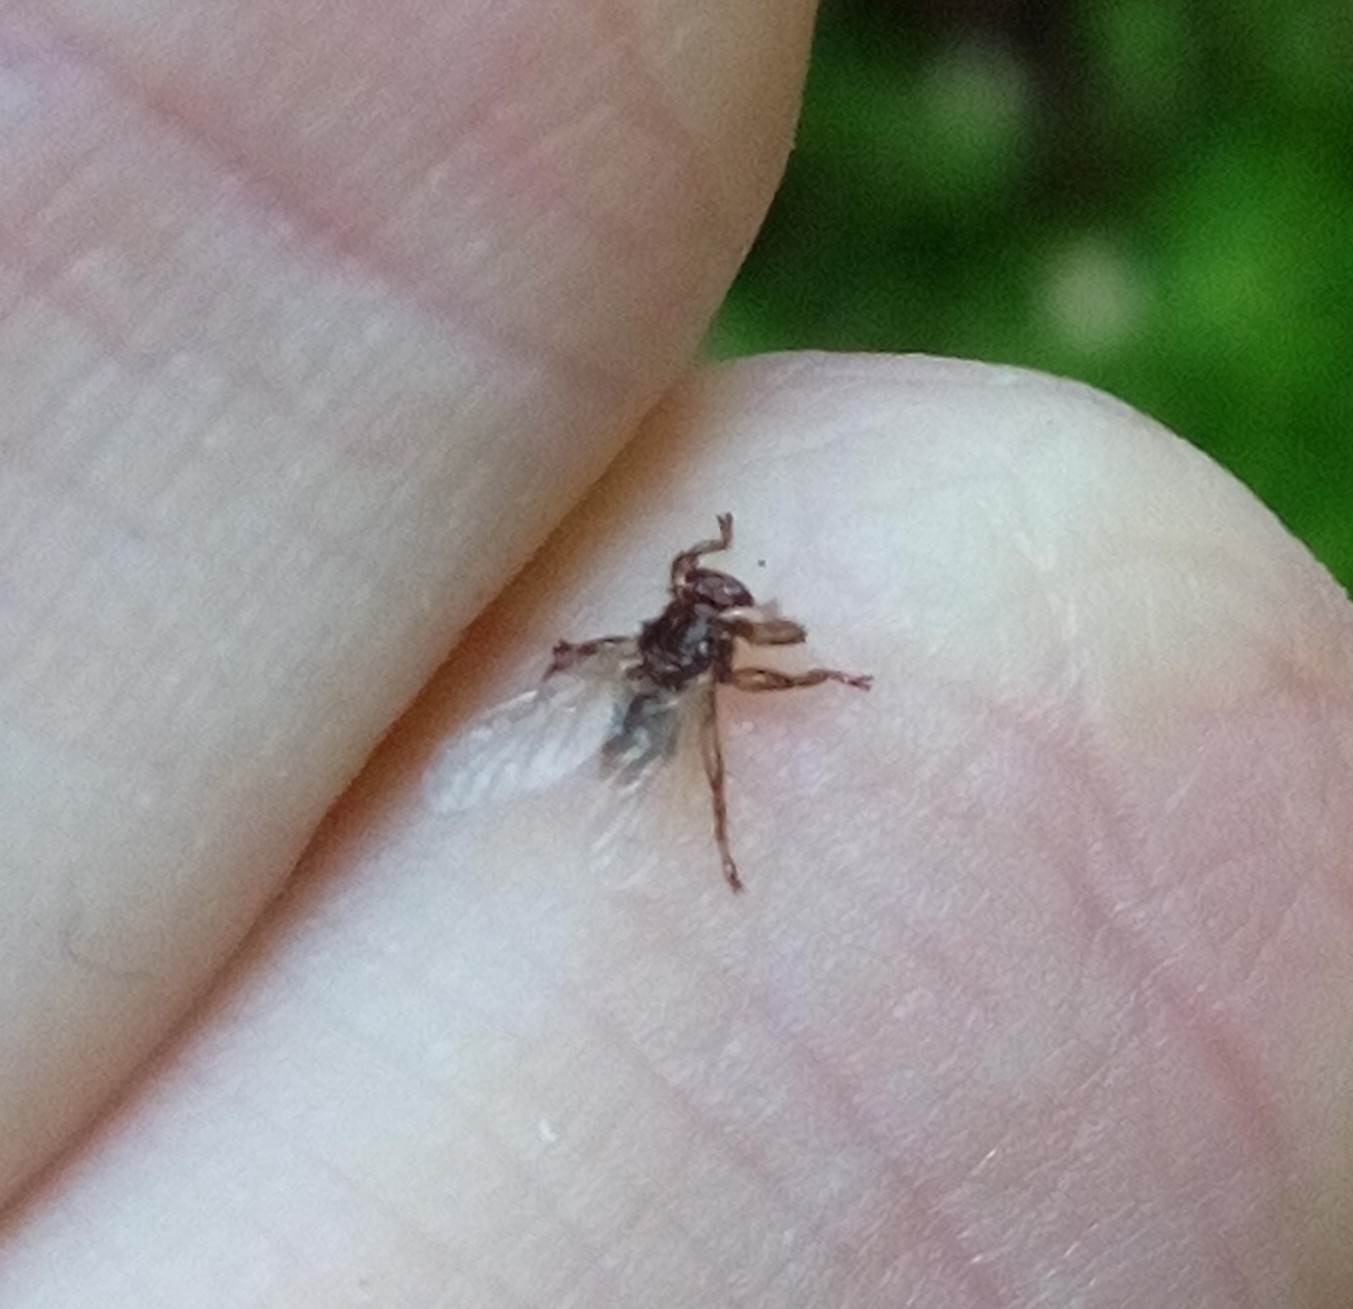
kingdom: Animalia
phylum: Arthropoda
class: Insecta
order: Diptera
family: Hippoboscidae
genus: Lipoptena
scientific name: Lipoptena cervi
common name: Deer ked
